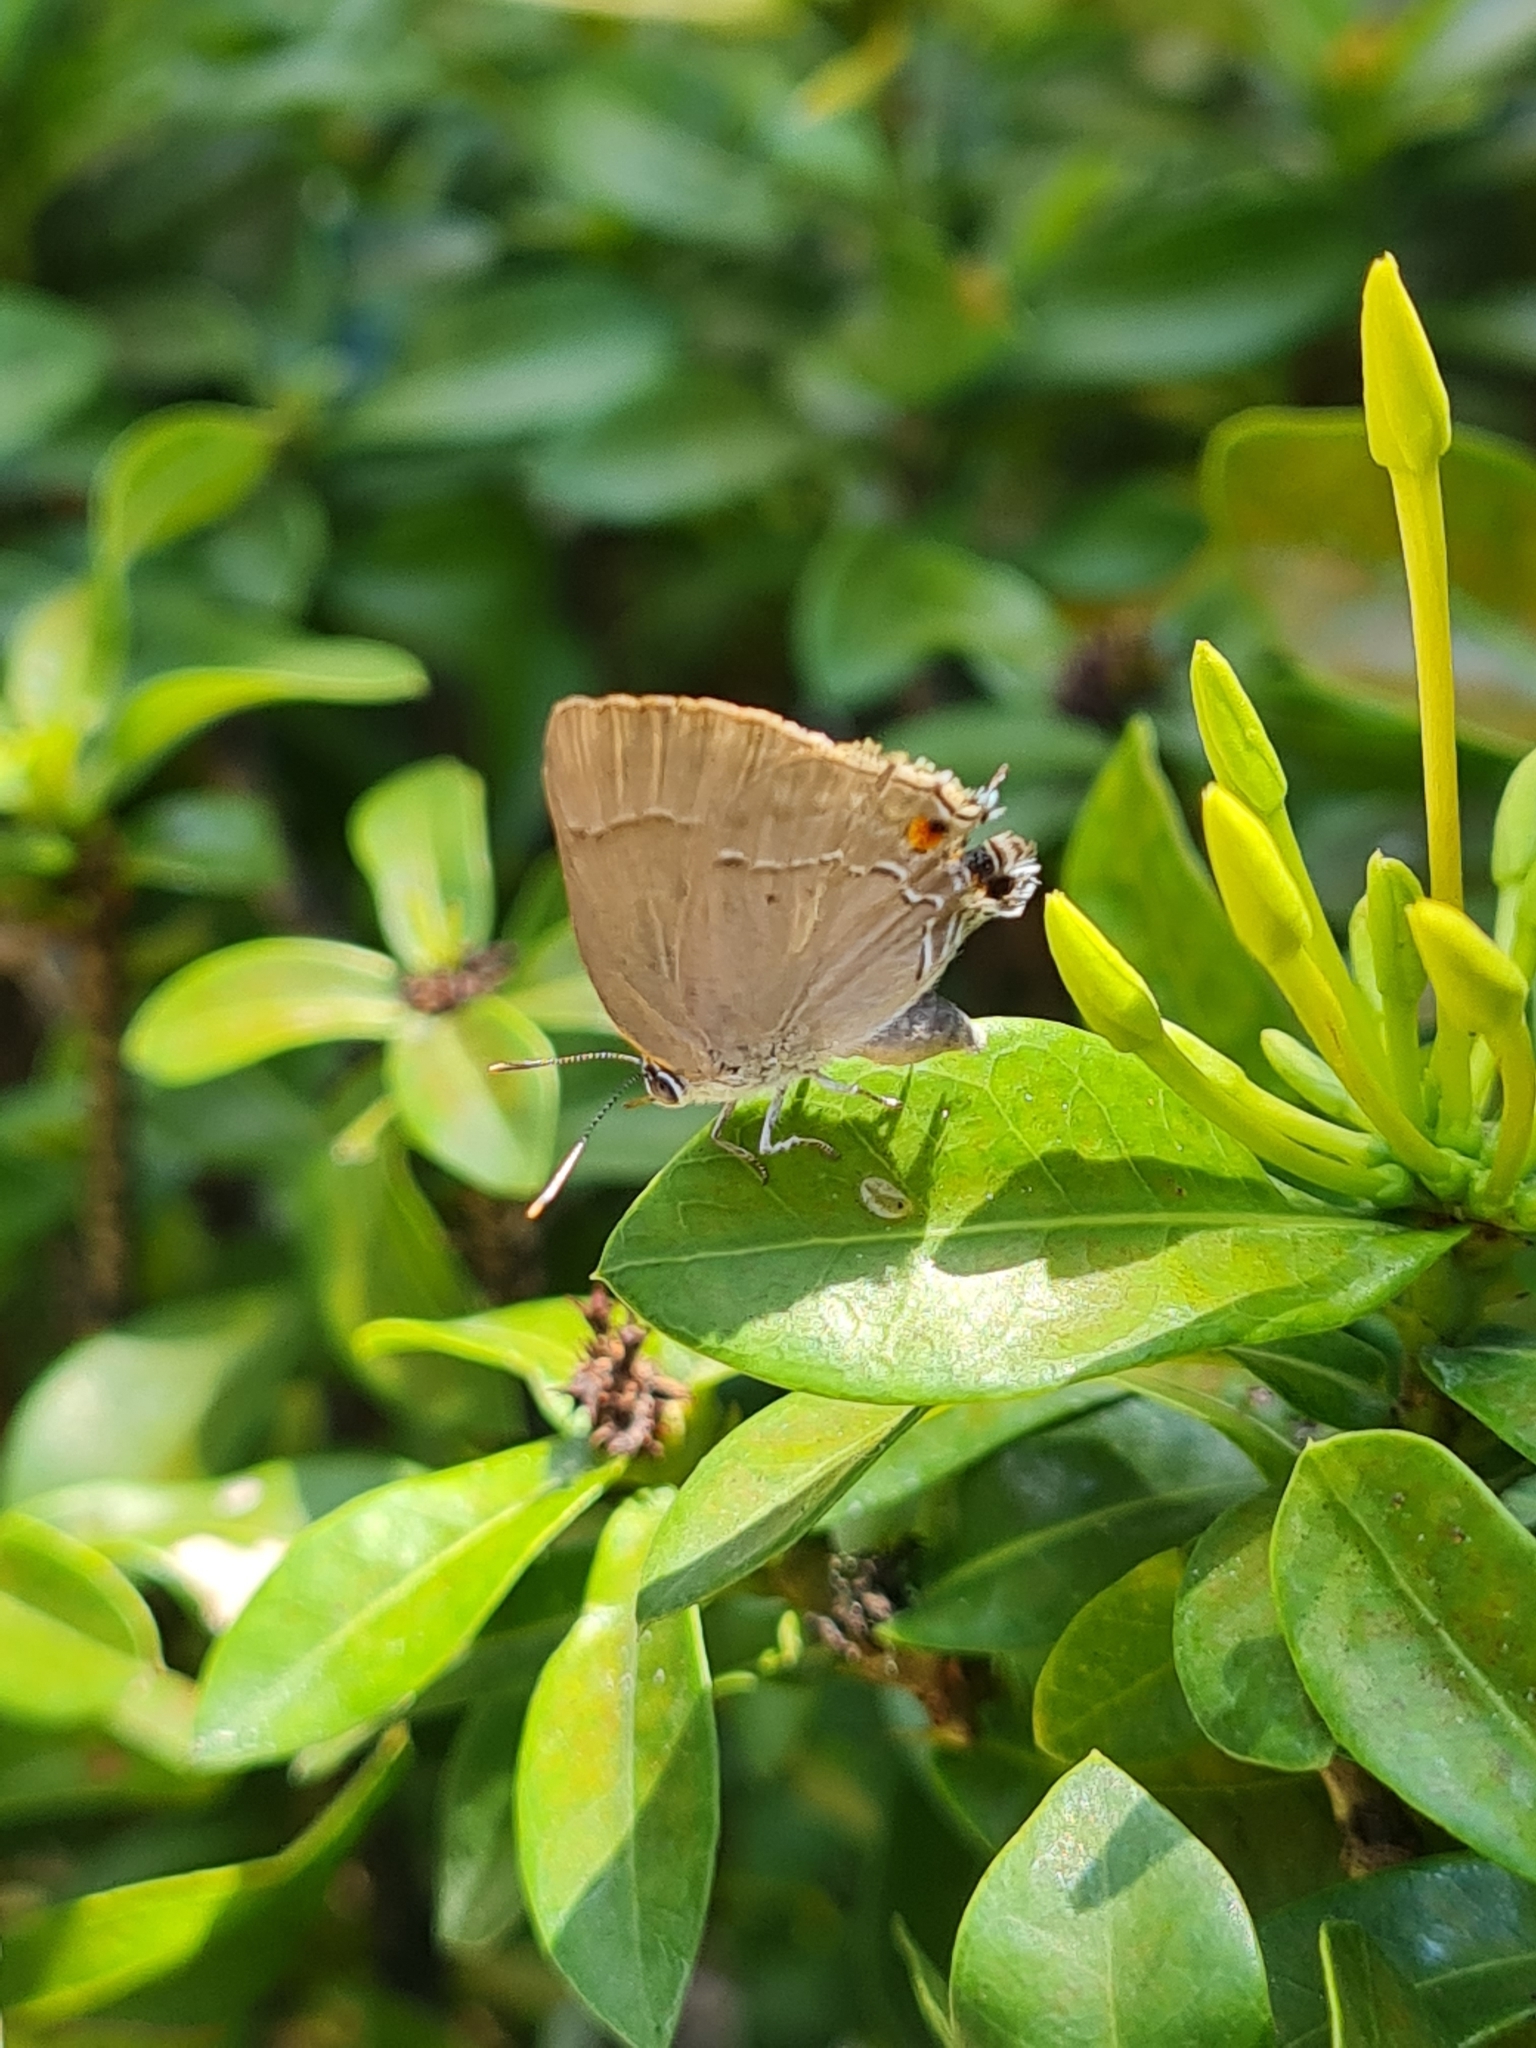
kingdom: Animalia
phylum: Arthropoda
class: Insecta
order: Lepidoptera
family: Lycaenidae
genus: Thecla
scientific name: Thecla marius
